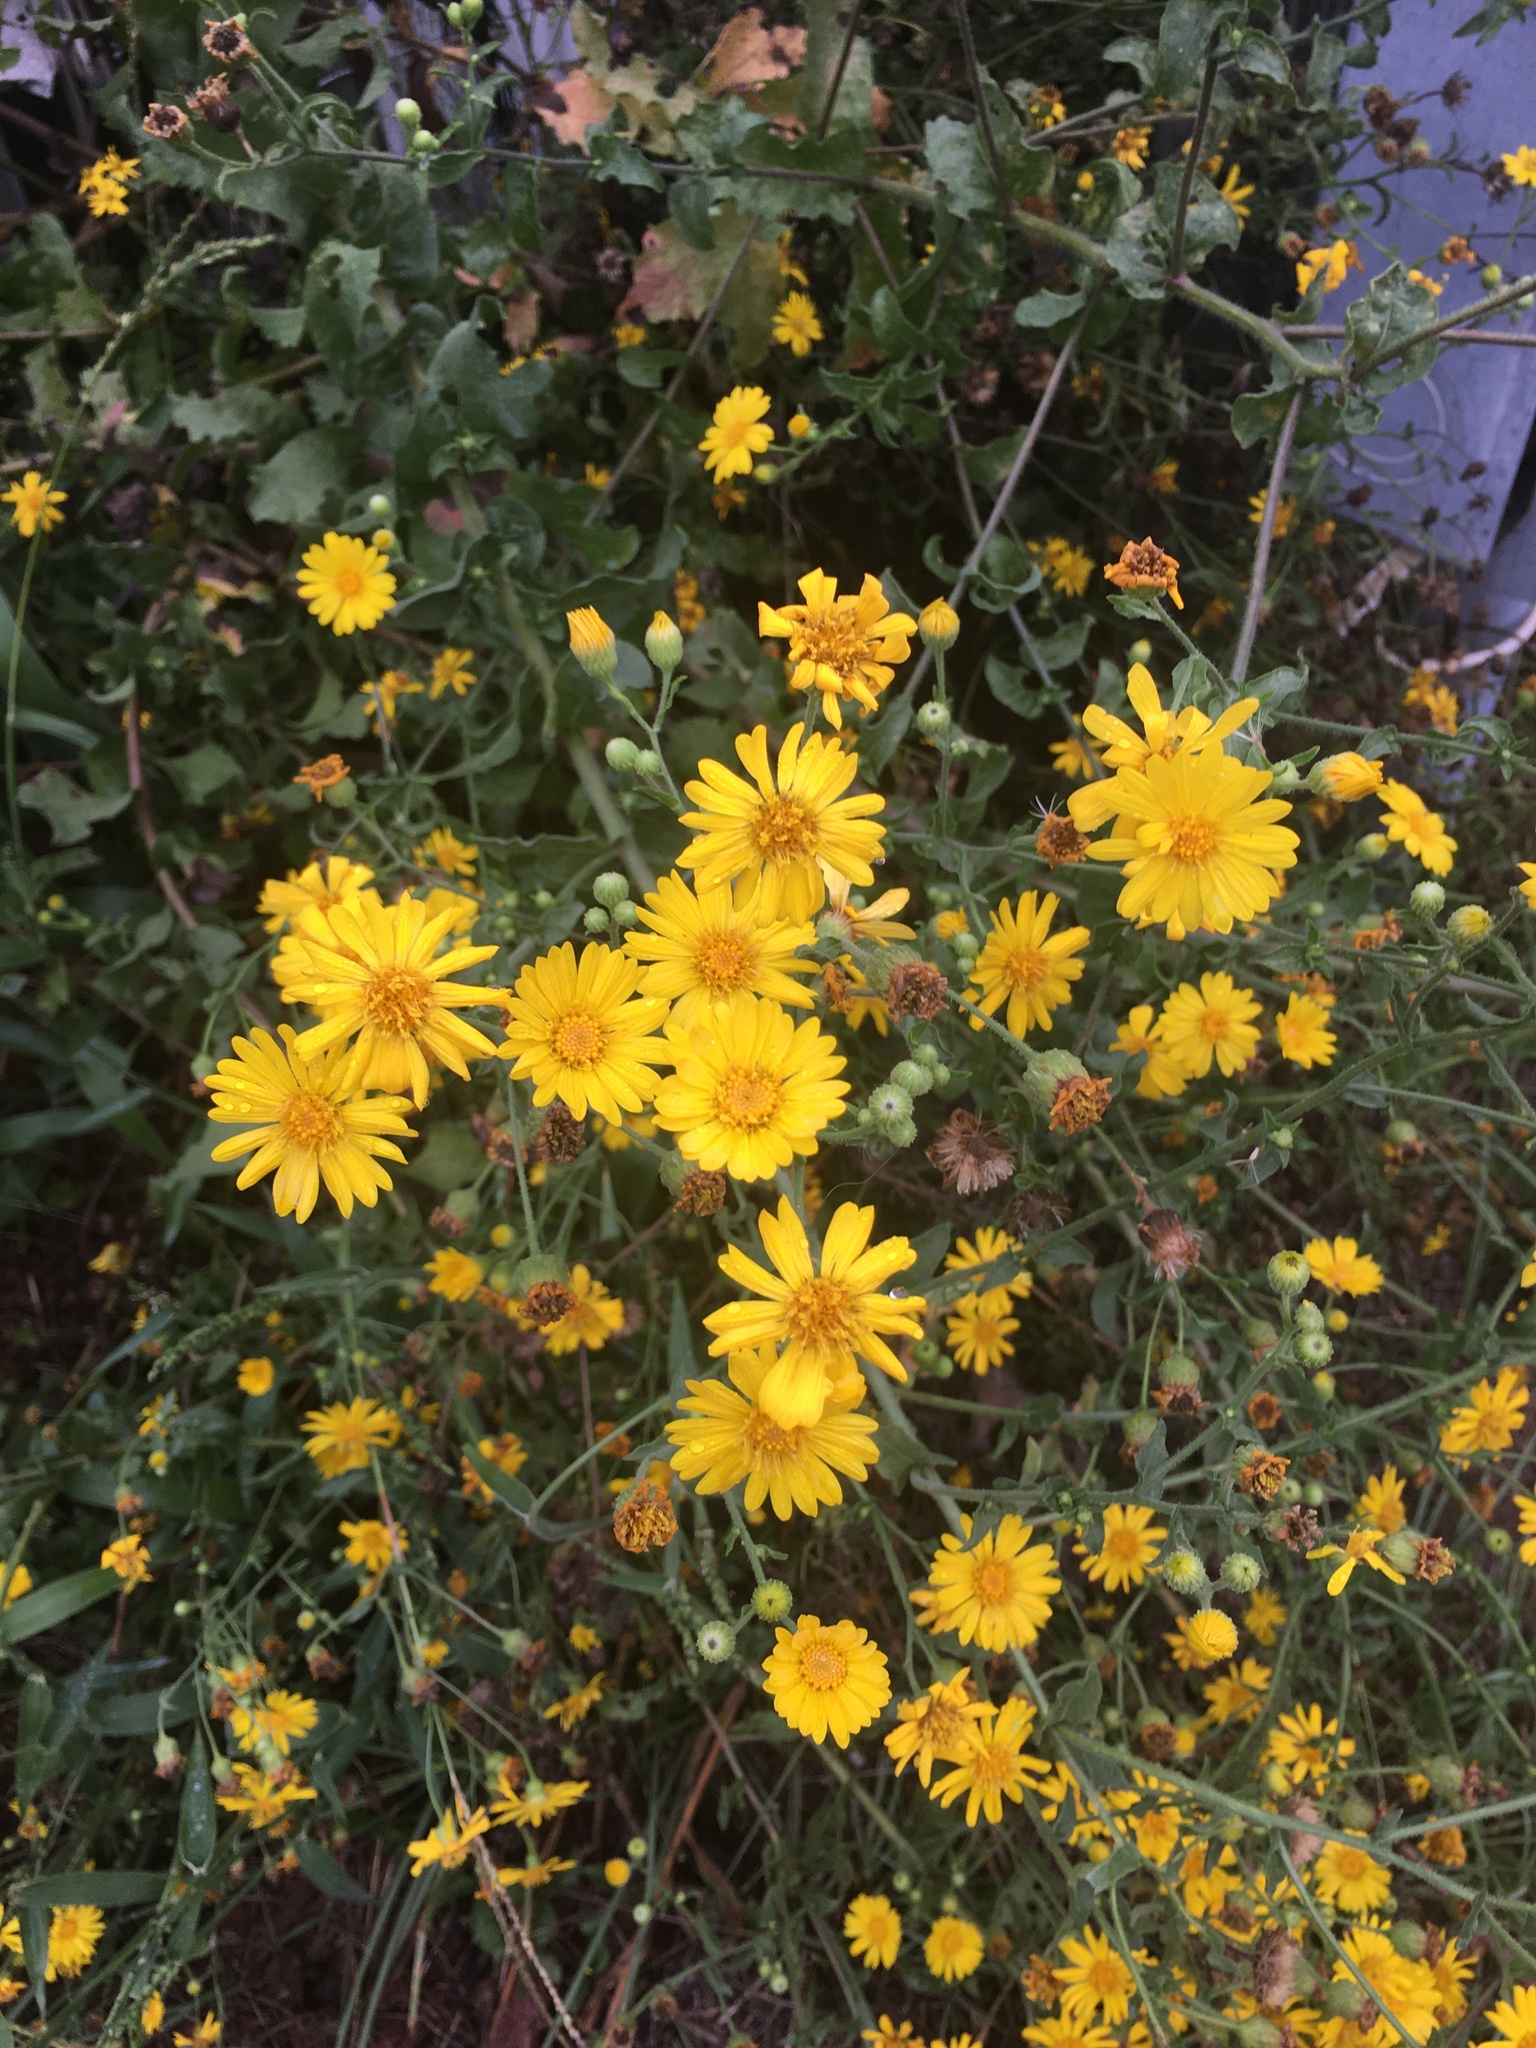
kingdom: Plantae
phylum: Tracheophyta
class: Magnoliopsida
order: Asterales
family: Asteraceae
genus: Heterotheca
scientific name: Heterotheca subaxillaris
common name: Camphorweed
